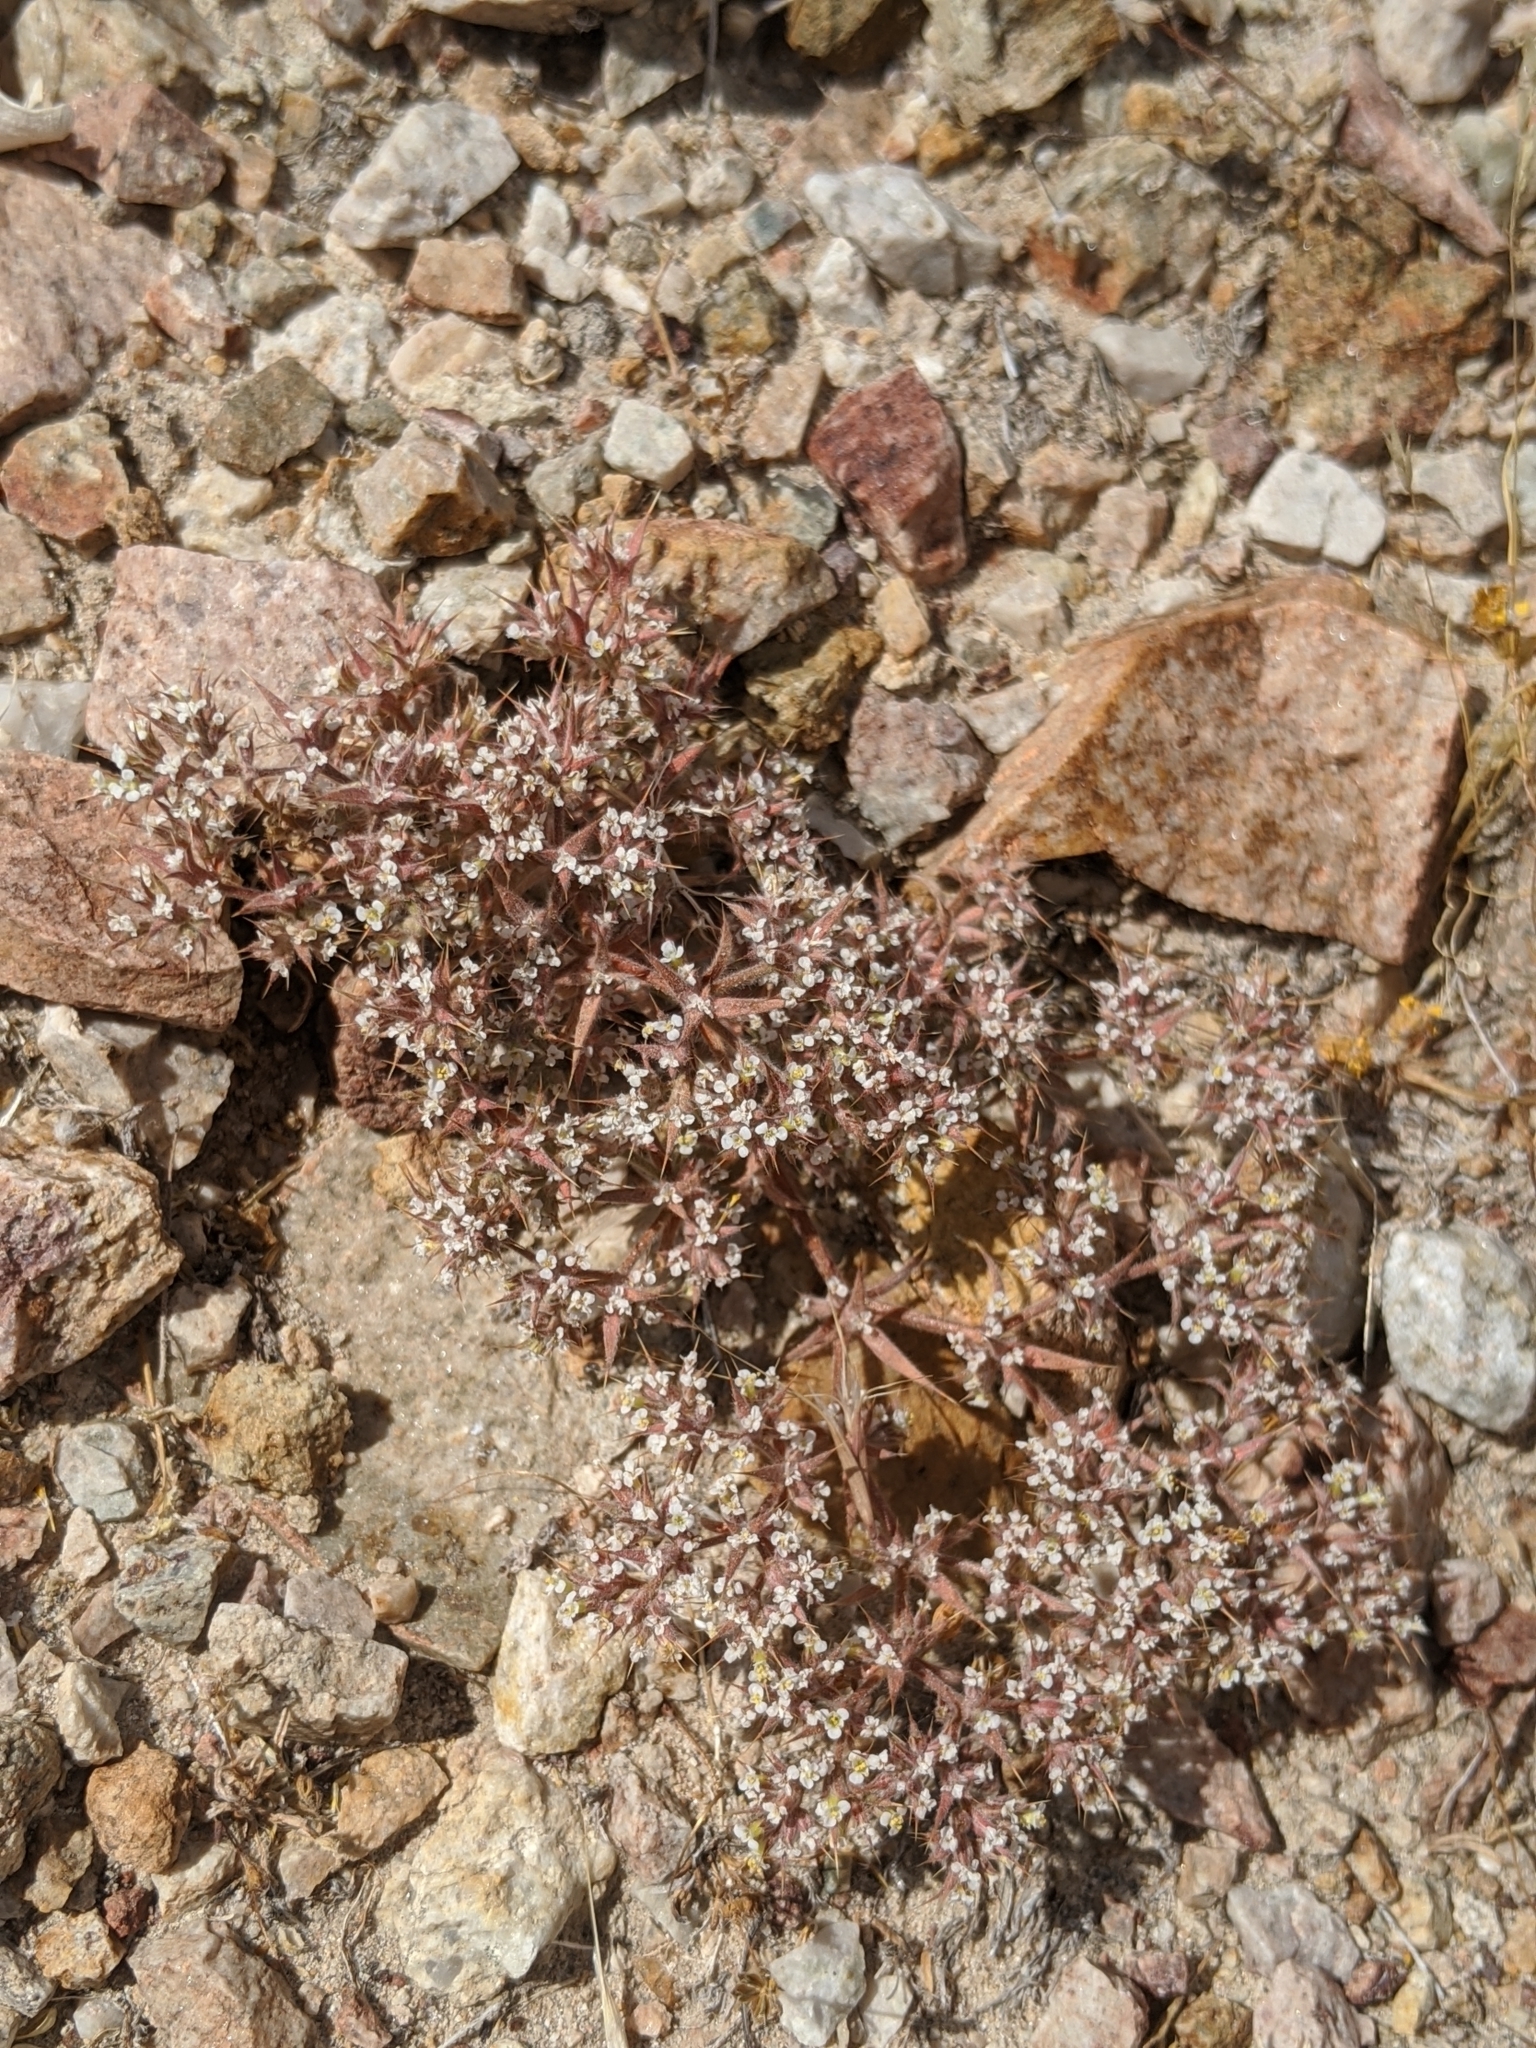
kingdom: Plantae
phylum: Tracheophyta
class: Magnoliopsida
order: Caryophyllales
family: Polygonaceae
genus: Chorizanthe
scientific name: Chorizanthe spinosa
